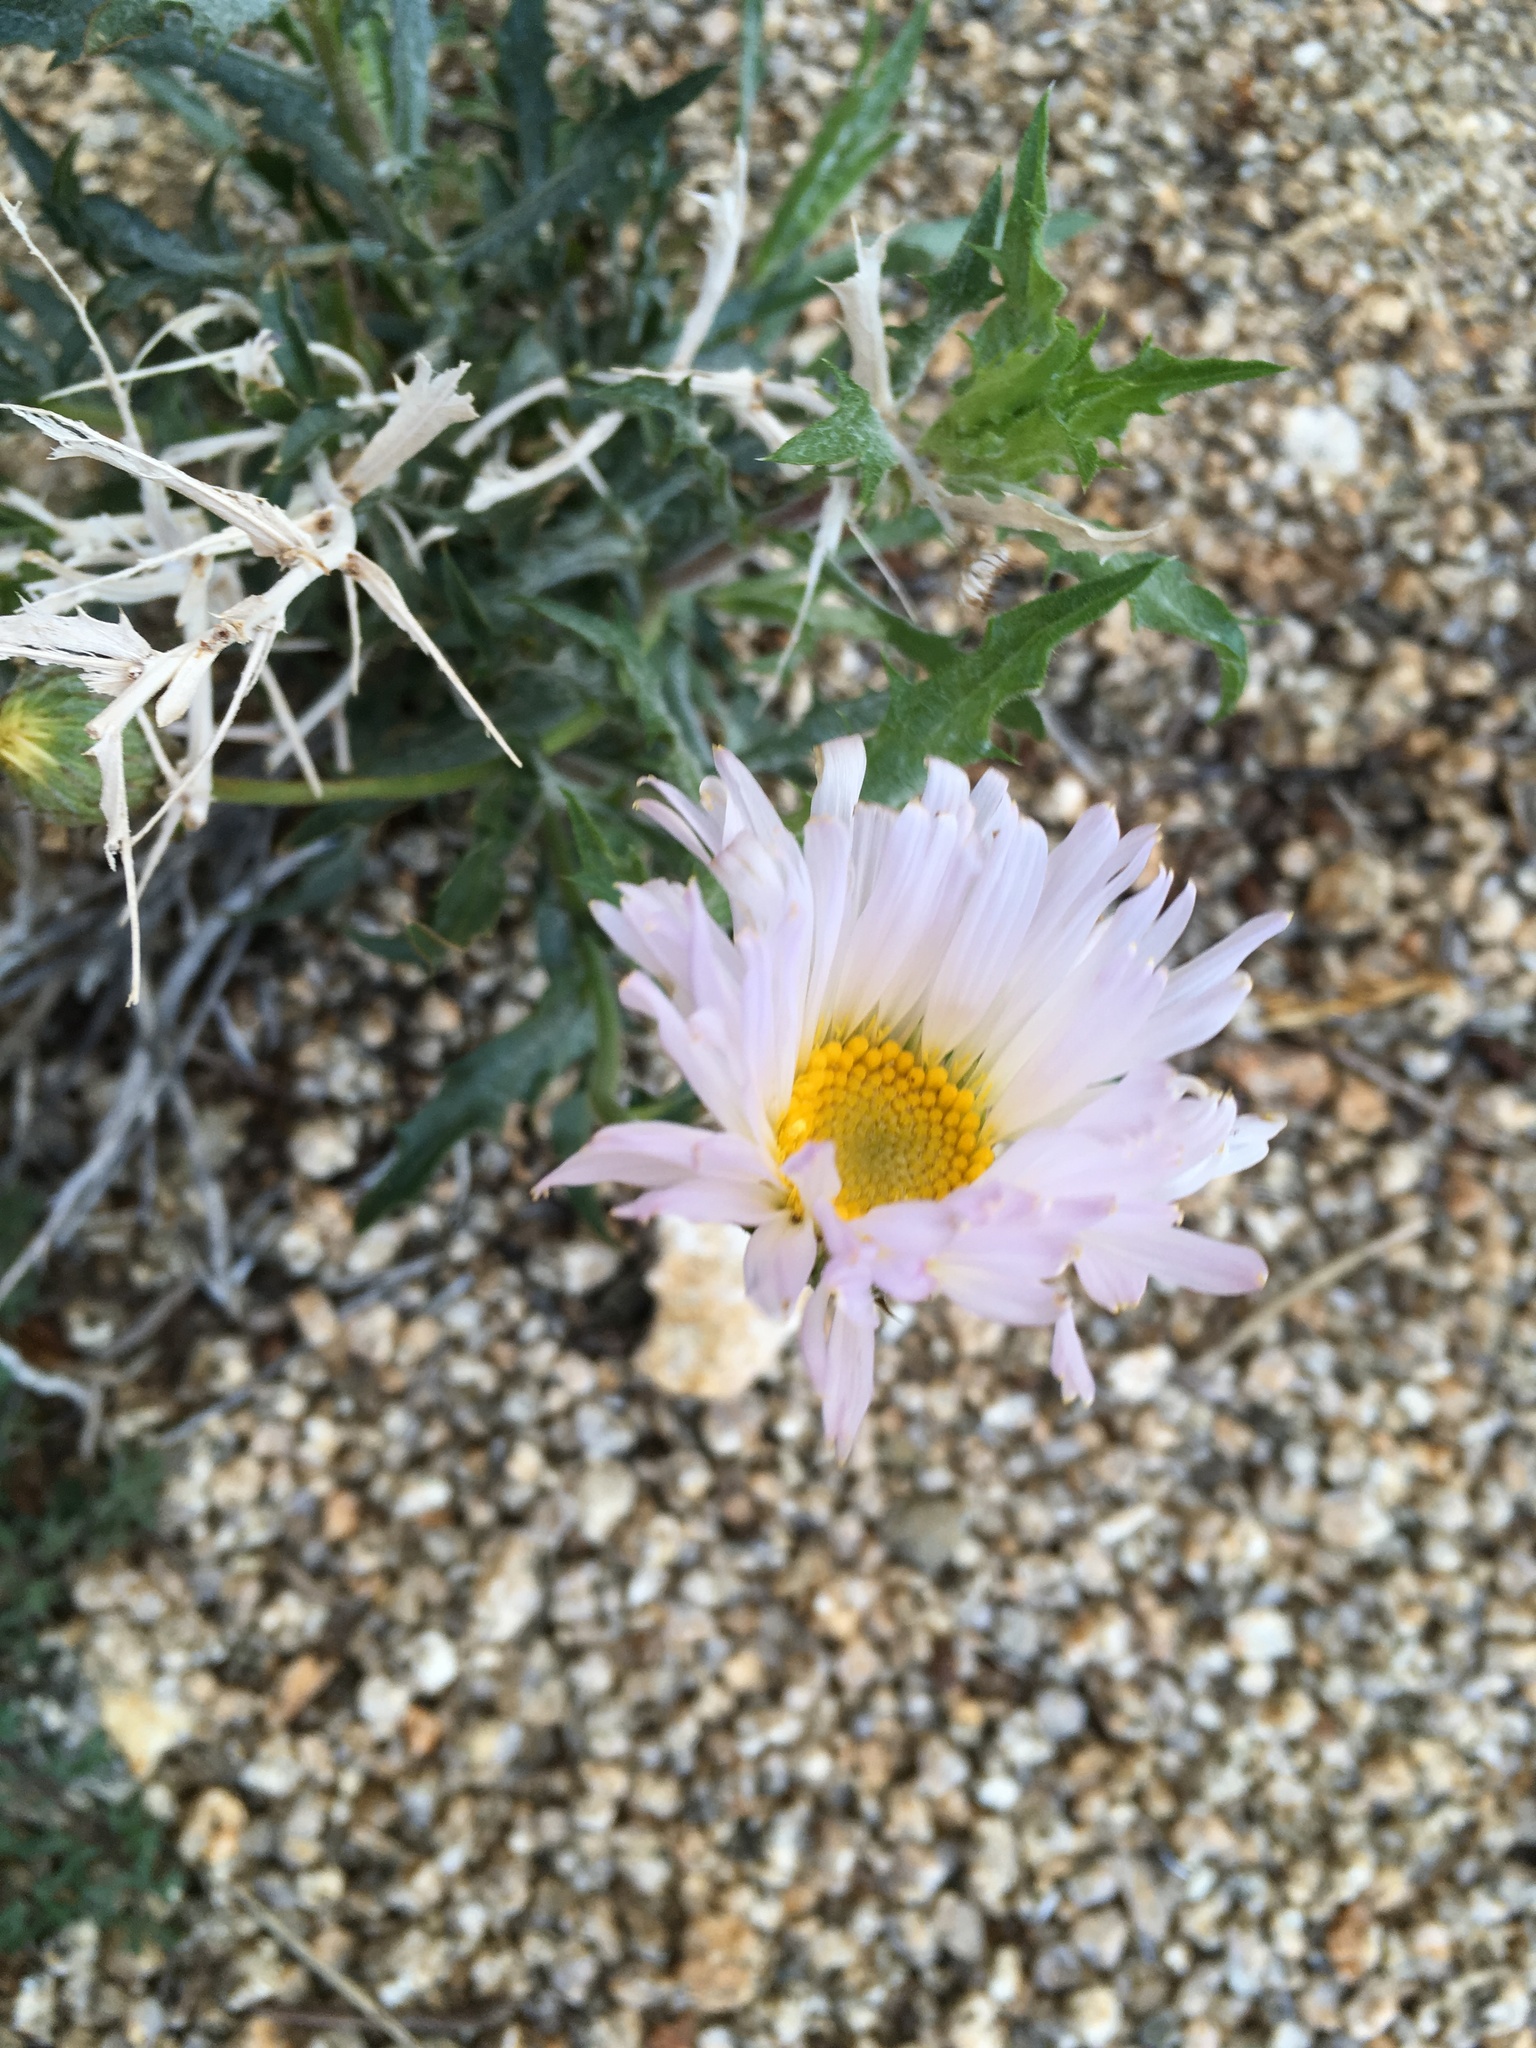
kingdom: Plantae
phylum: Tracheophyta
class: Magnoliopsida
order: Asterales
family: Asteraceae
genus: Xylorhiza
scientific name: Xylorhiza tortifolia
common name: Hurt-leaf woody-aster
